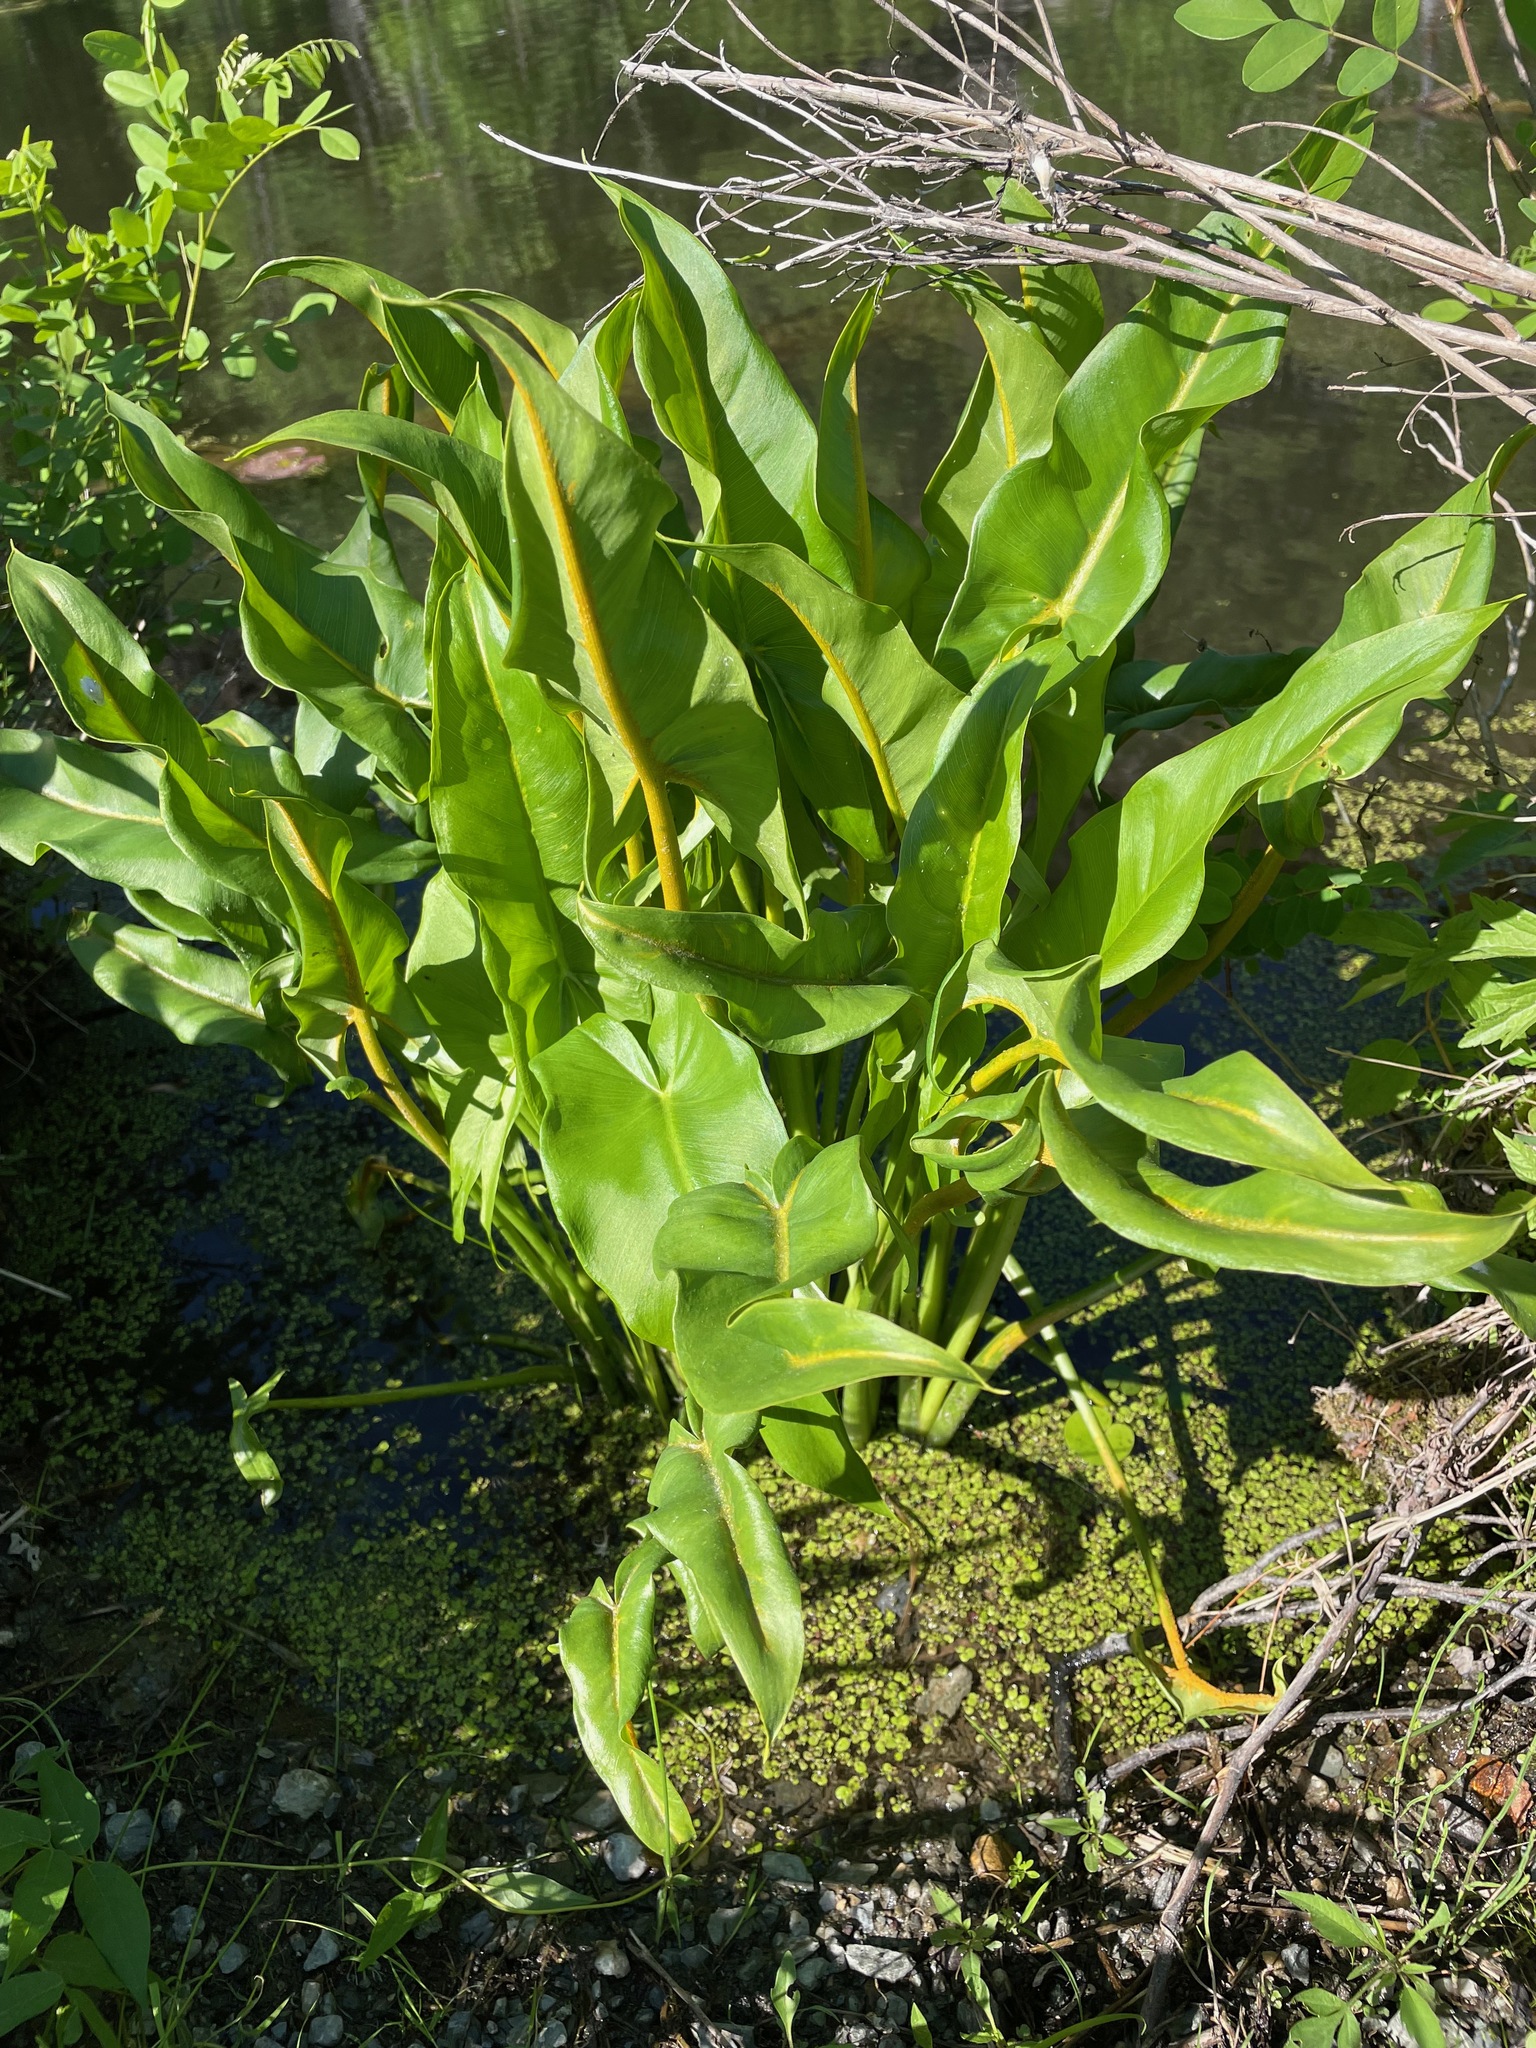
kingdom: Plantae
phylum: Tracheophyta
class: Liliopsida
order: Alismatales
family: Araceae
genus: Peltandra
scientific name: Peltandra virginica
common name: Arrow arum
